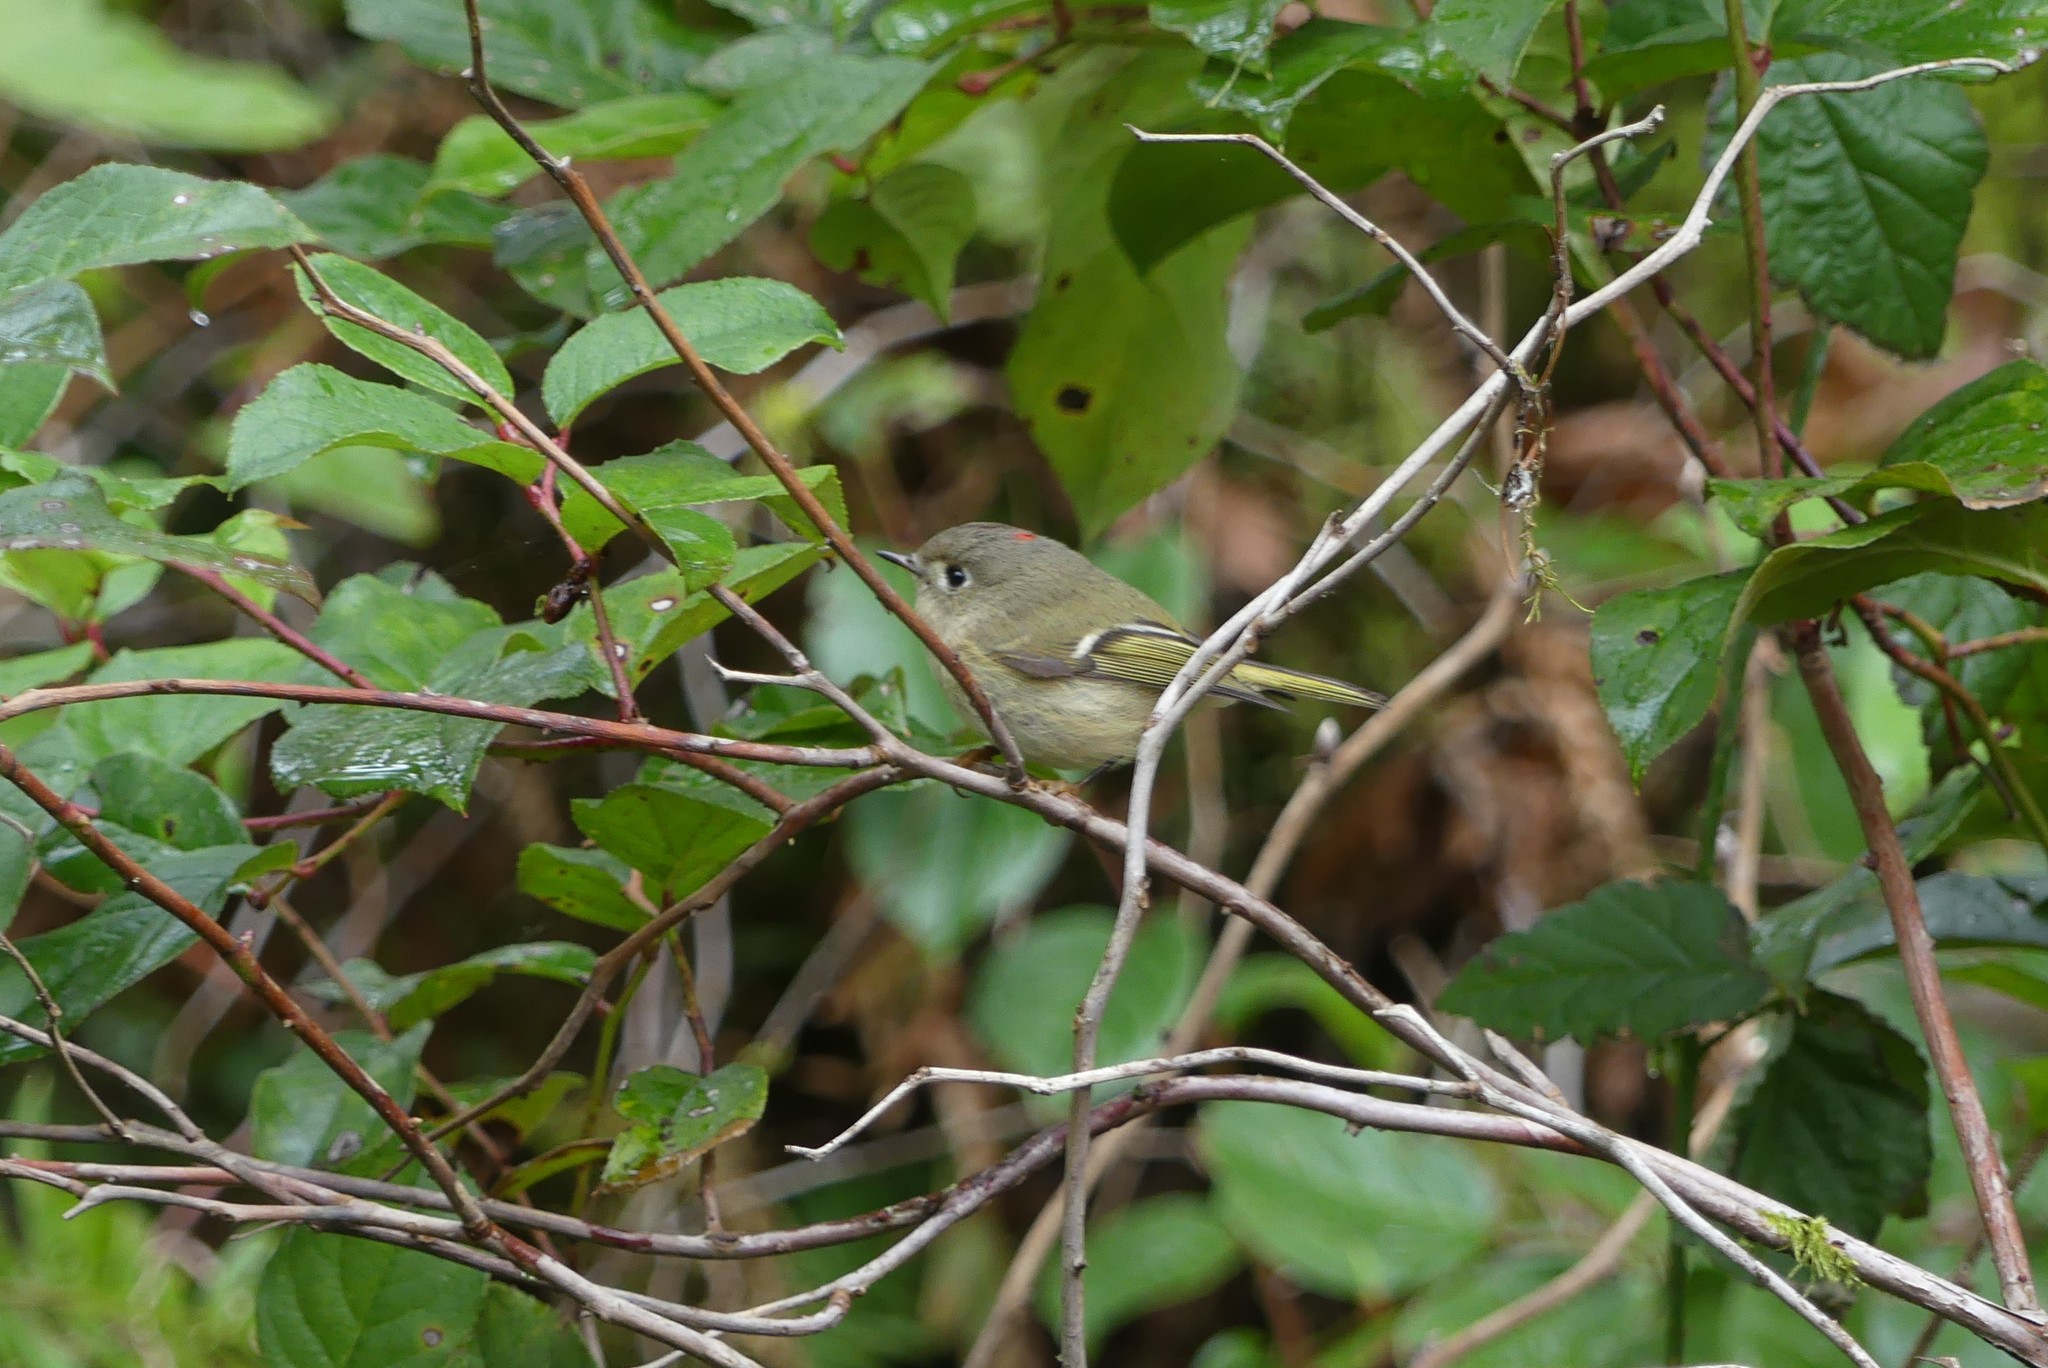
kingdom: Animalia
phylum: Chordata
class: Aves
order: Passeriformes
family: Regulidae
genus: Regulus
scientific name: Regulus calendula
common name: Ruby-crowned kinglet
